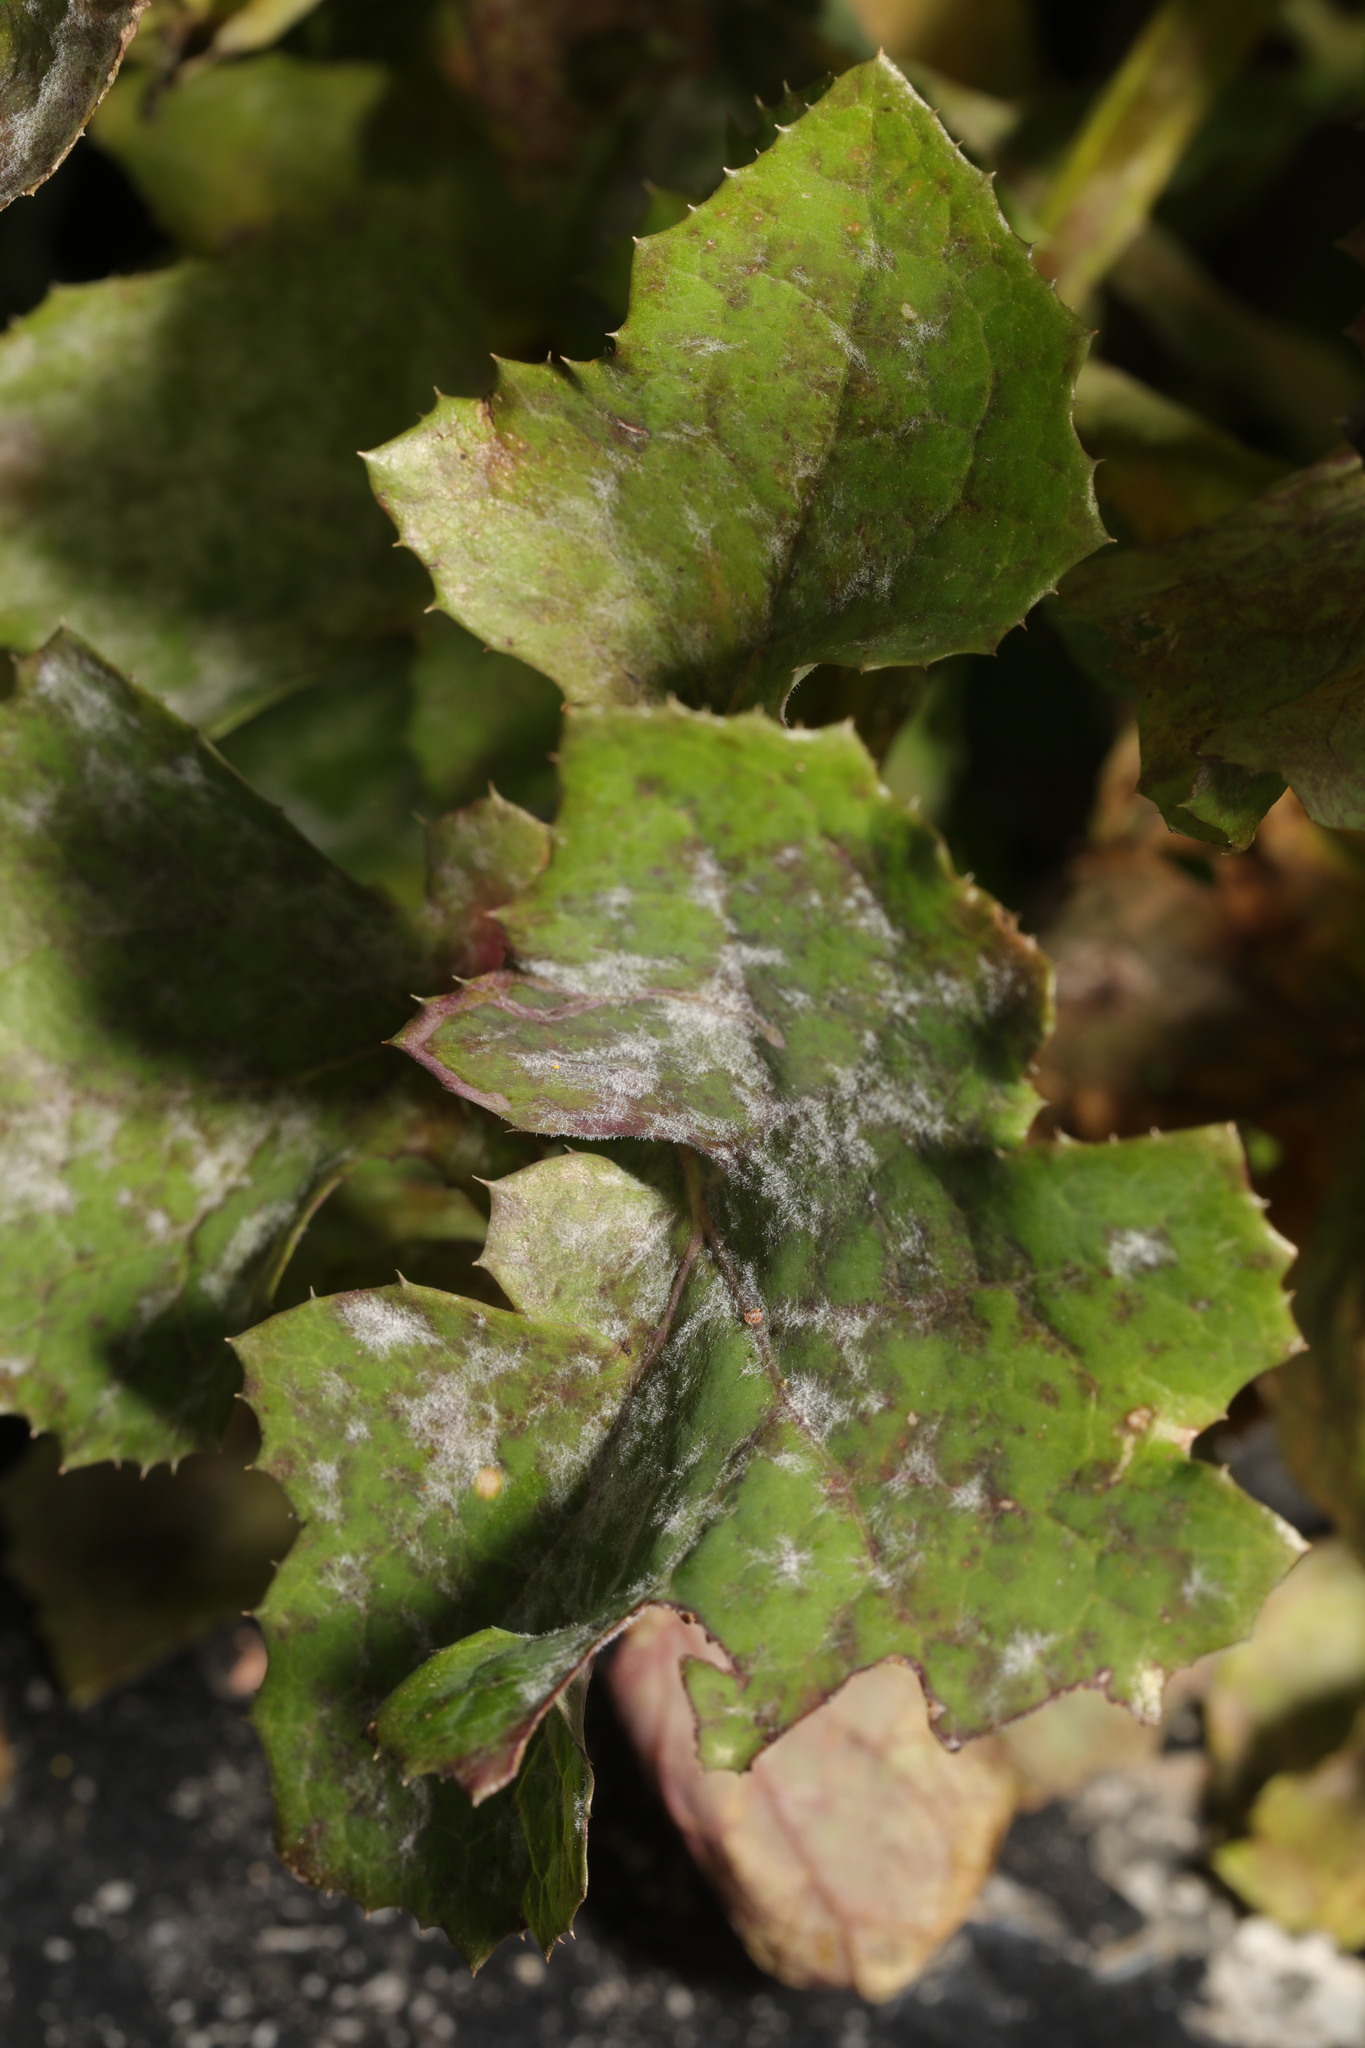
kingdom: Fungi
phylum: Ascomycota
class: Leotiomycetes
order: Helotiales
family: Erysiphaceae
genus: Golovinomyces
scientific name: Golovinomyces sonchicola
